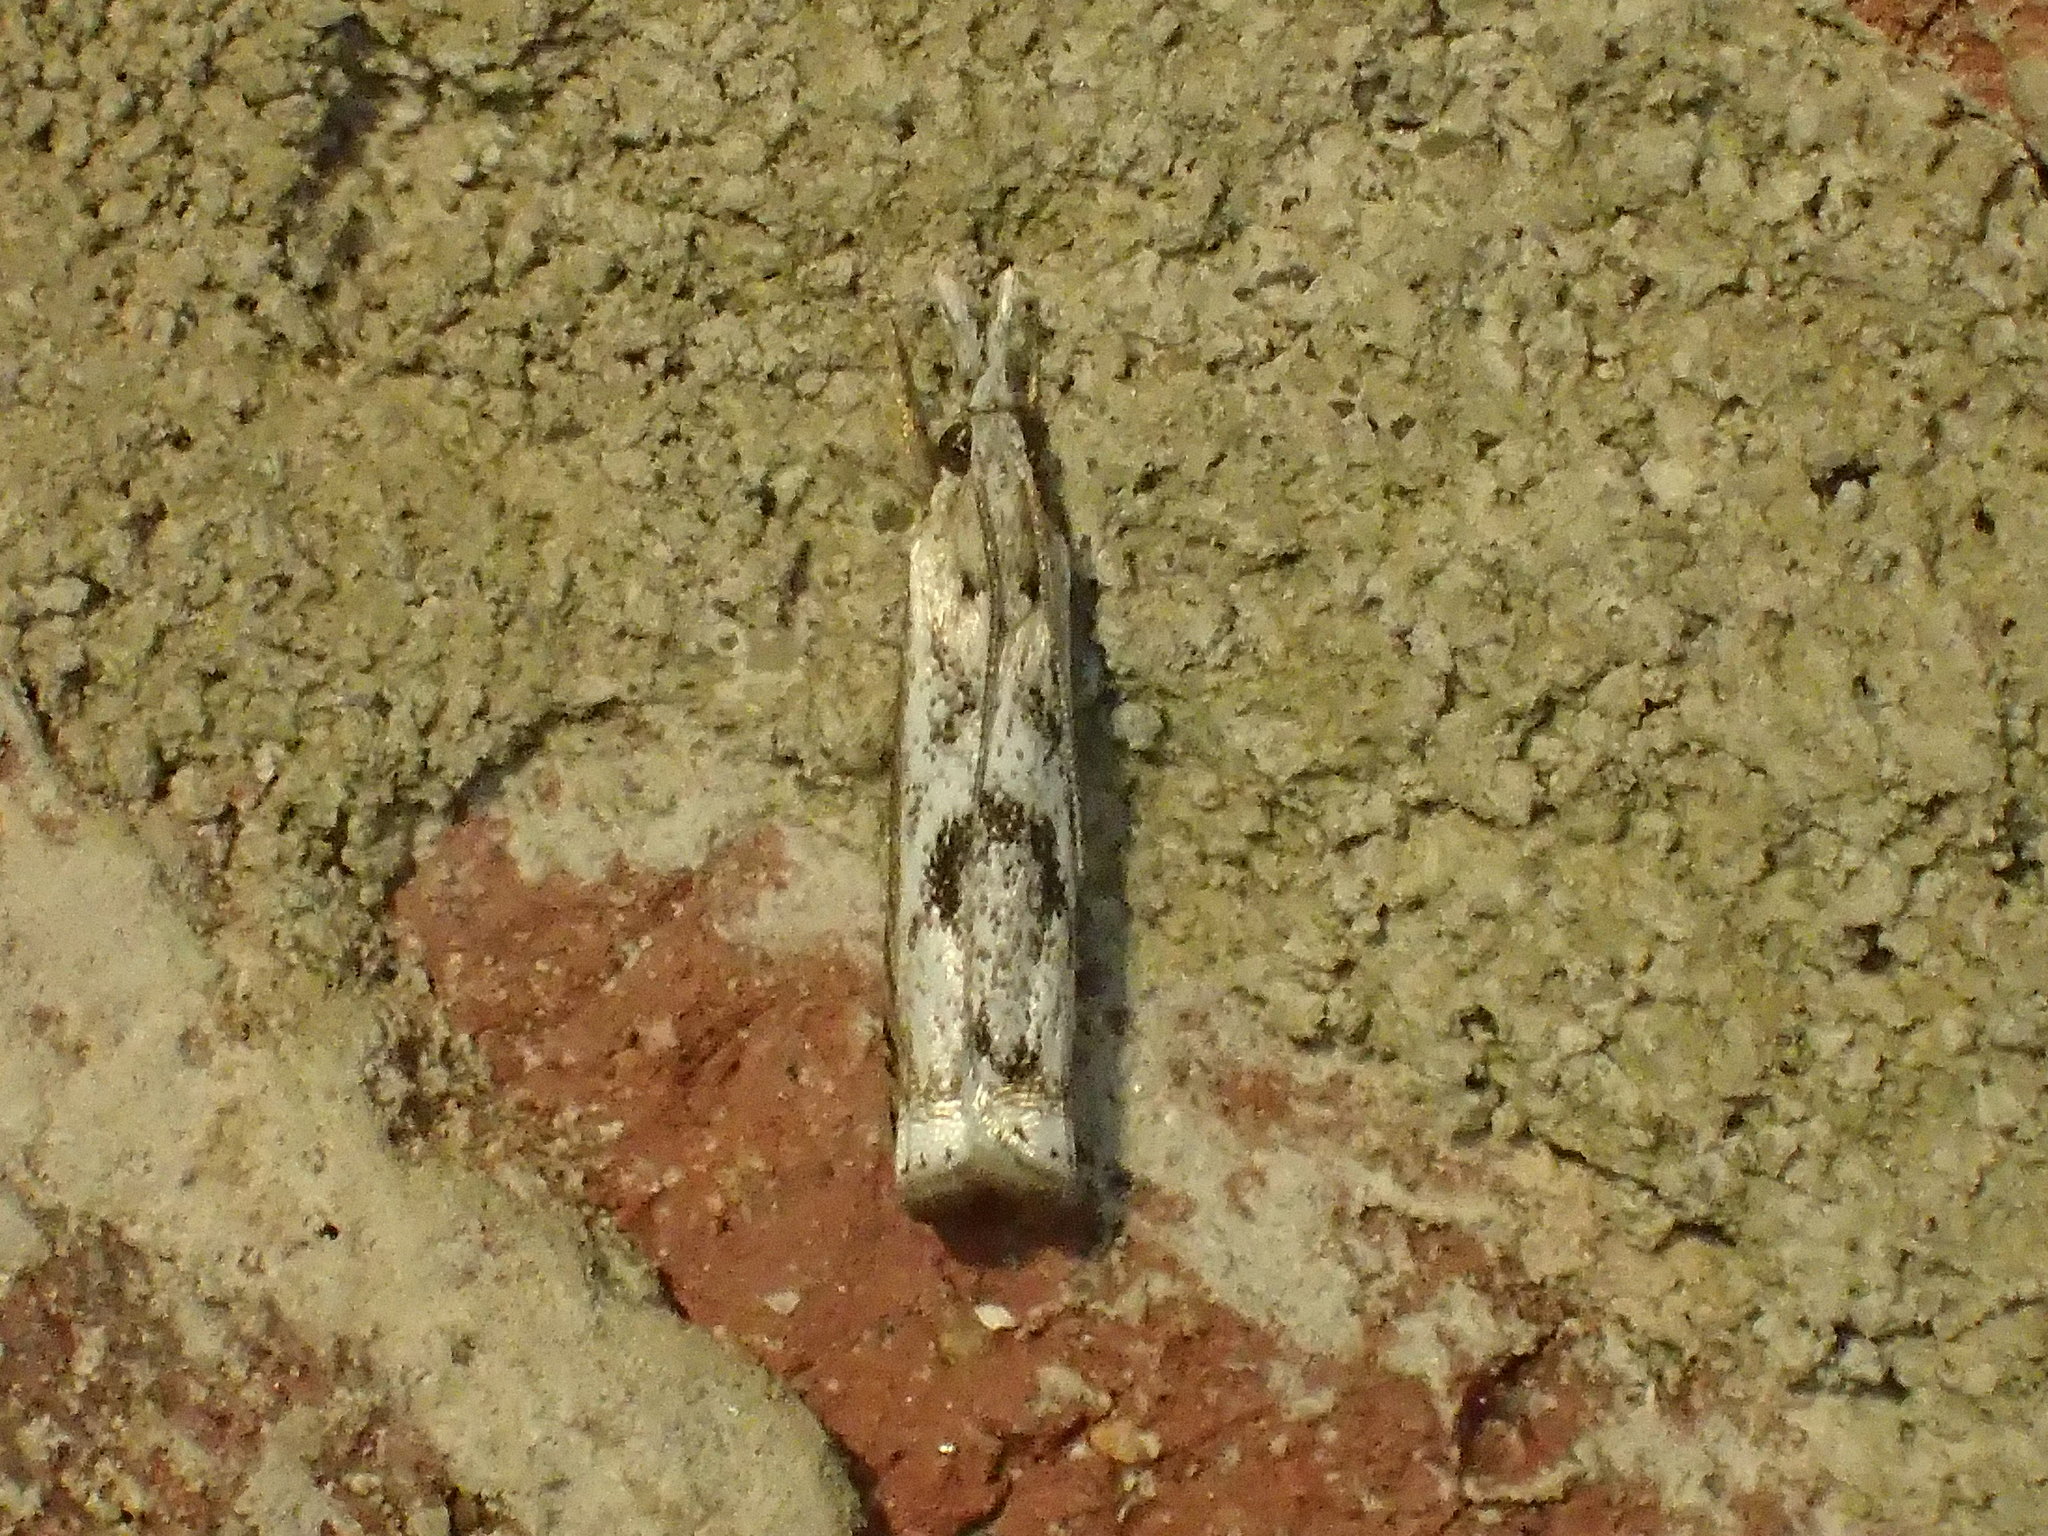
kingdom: Animalia
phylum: Arthropoda
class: Insecta
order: Lepidoptera
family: Crambidae
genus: Microcrambus
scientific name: Microcrambus elegans
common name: Elegant grass-veneer
